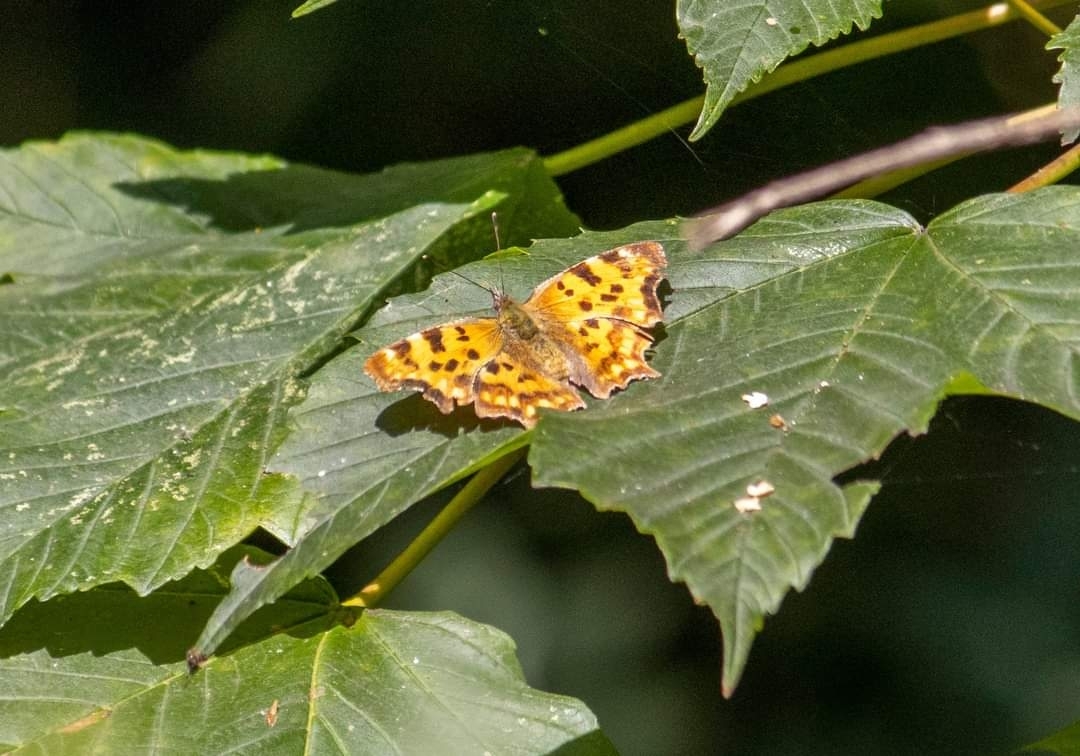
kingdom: Animalia
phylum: Arthropoda
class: Insecta
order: Lepidoptera
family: Nymphalidae
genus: Polygonia
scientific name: Polygonia c-album
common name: Comma
